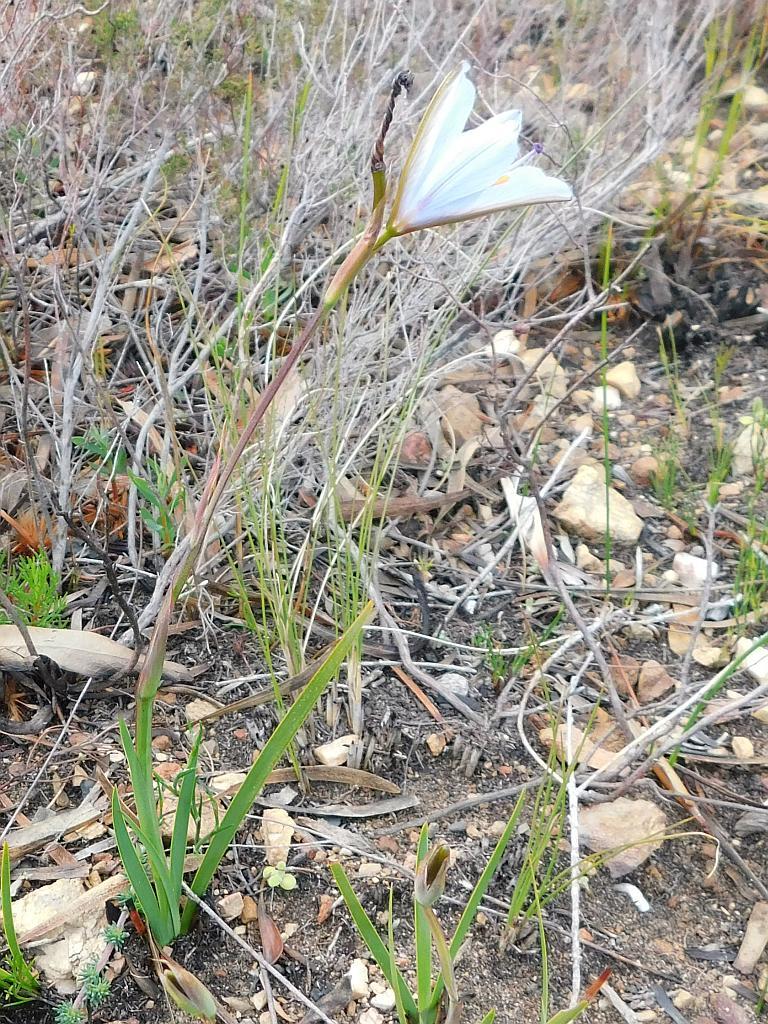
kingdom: Plantae
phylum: Tracheophyta
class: Liliopsida
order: Asparagales
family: Iridaceae
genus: Aristea
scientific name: Aristea spiralis
